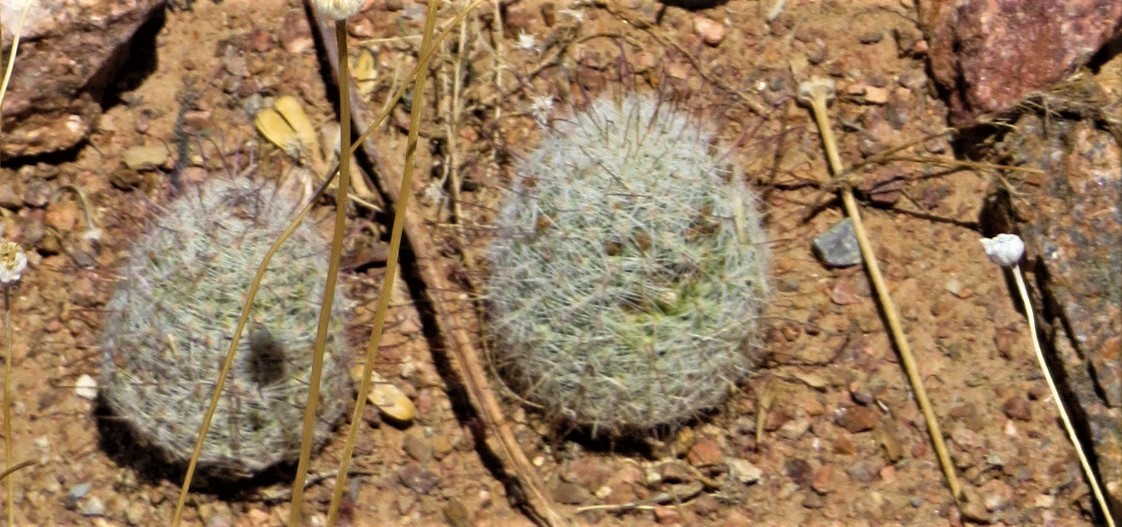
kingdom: Plantae
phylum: Tracheophyta
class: Magnoliopsida
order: Caryophyllales
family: Cactaceae
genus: Cochemiea
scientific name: Cochemiea grahamii
